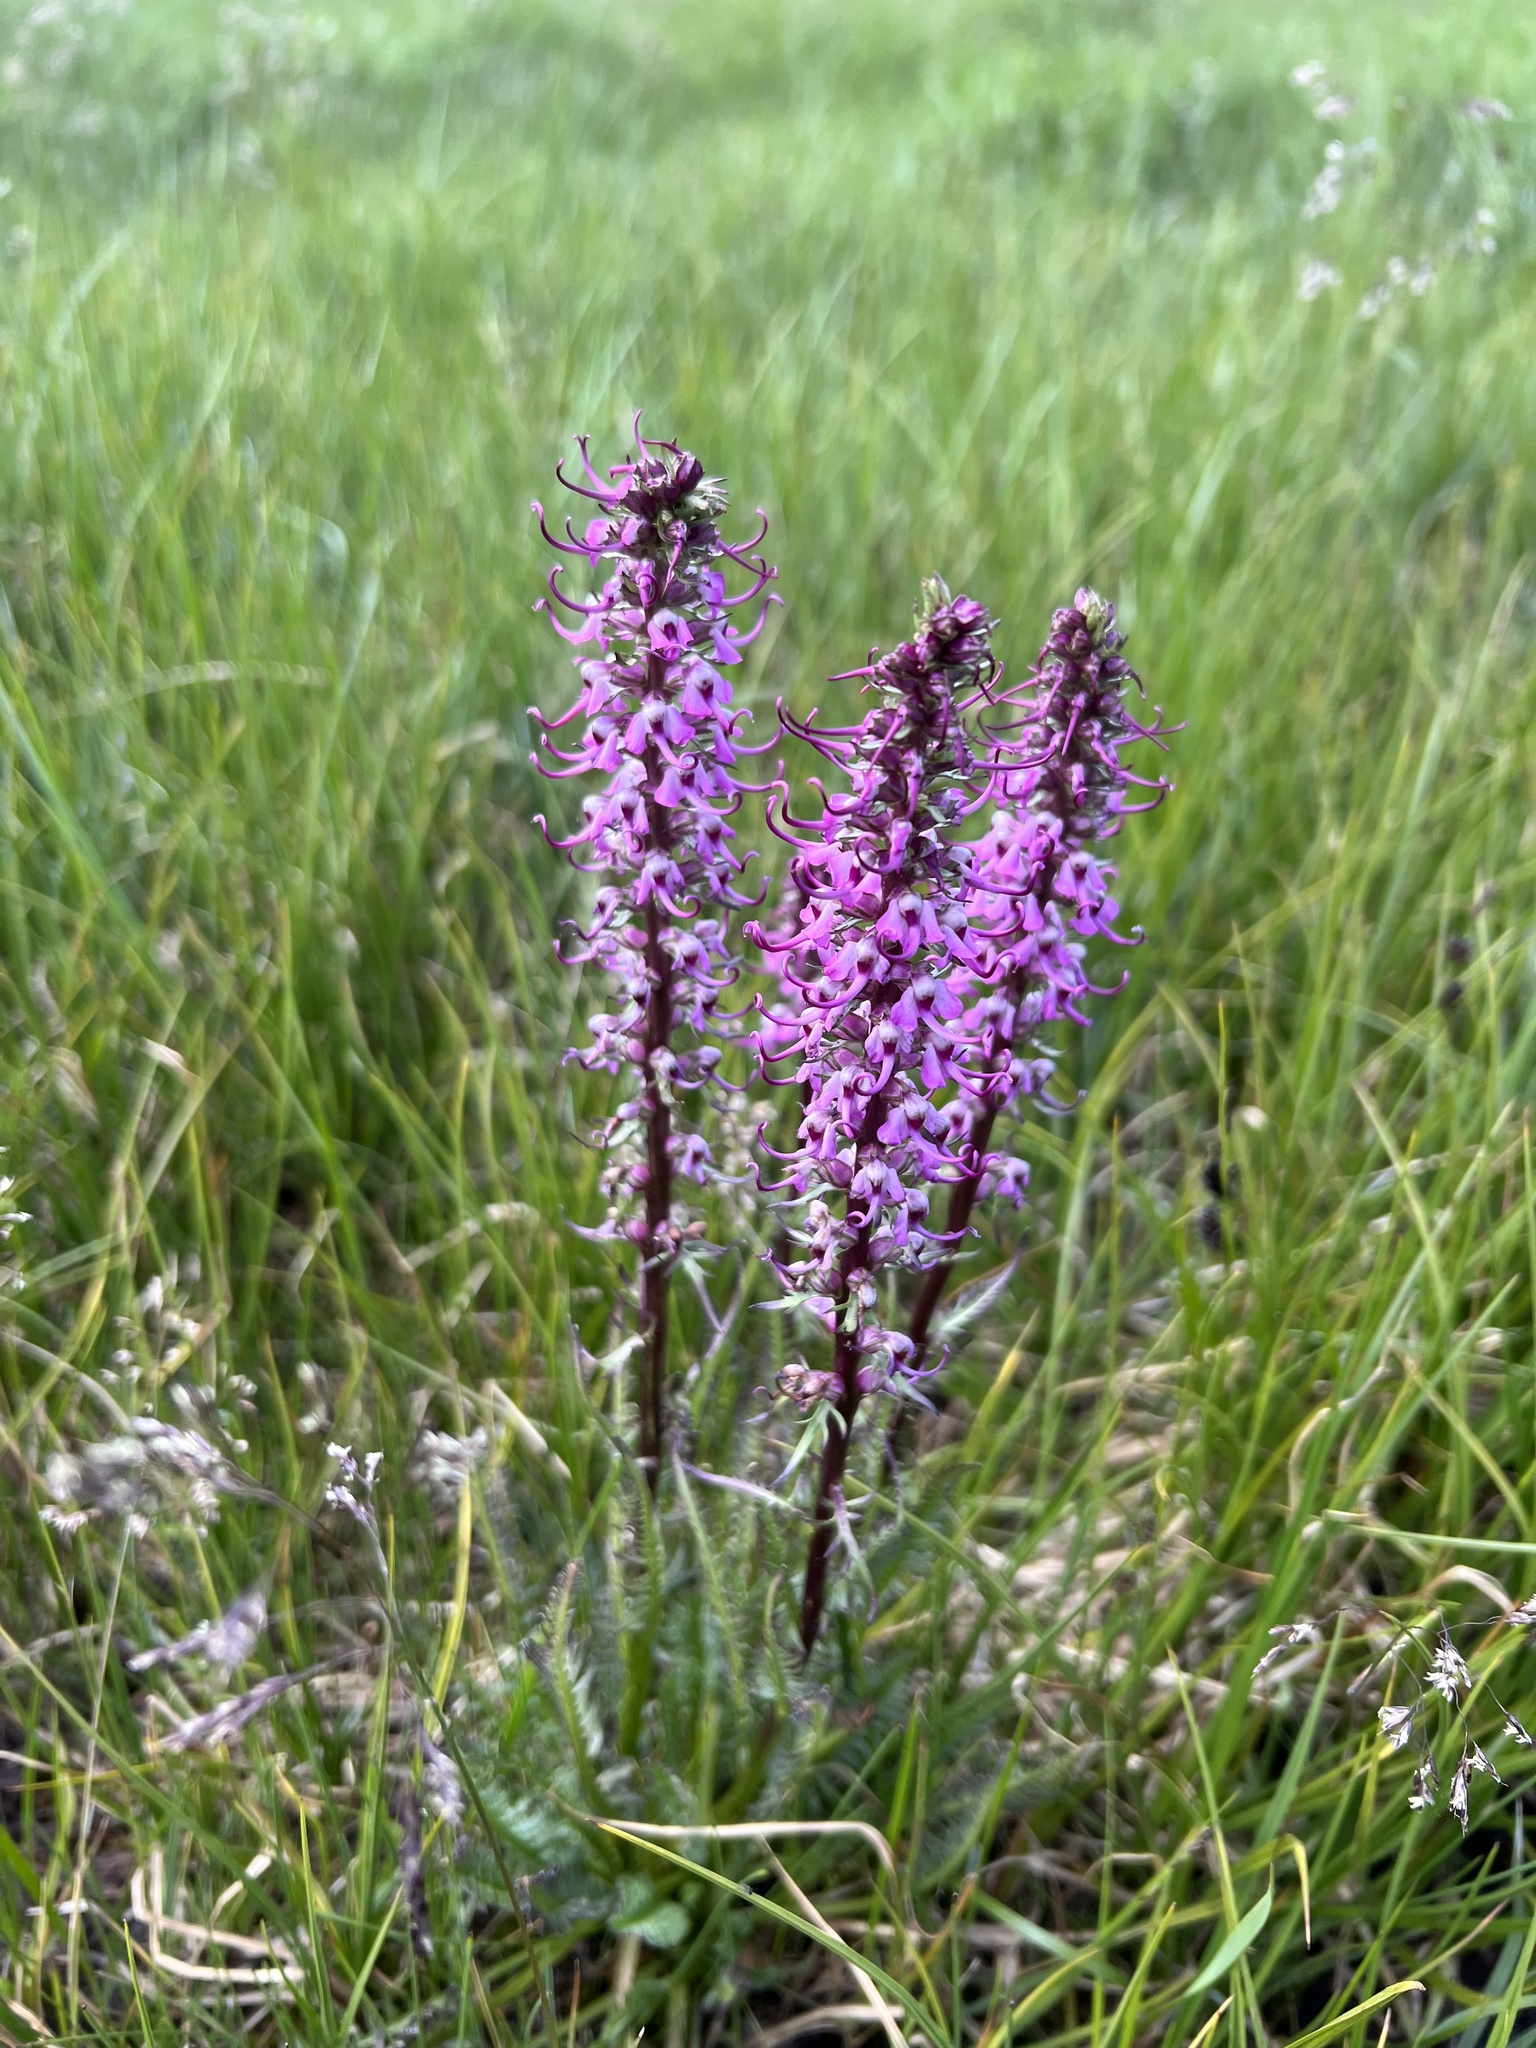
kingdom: Plantae
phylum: Tracheophyta
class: Magnoliopsida
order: Lamiales
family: Orobanchaceae
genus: Pedicularis
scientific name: Pedicularis groenlandica
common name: Elephant's-head
